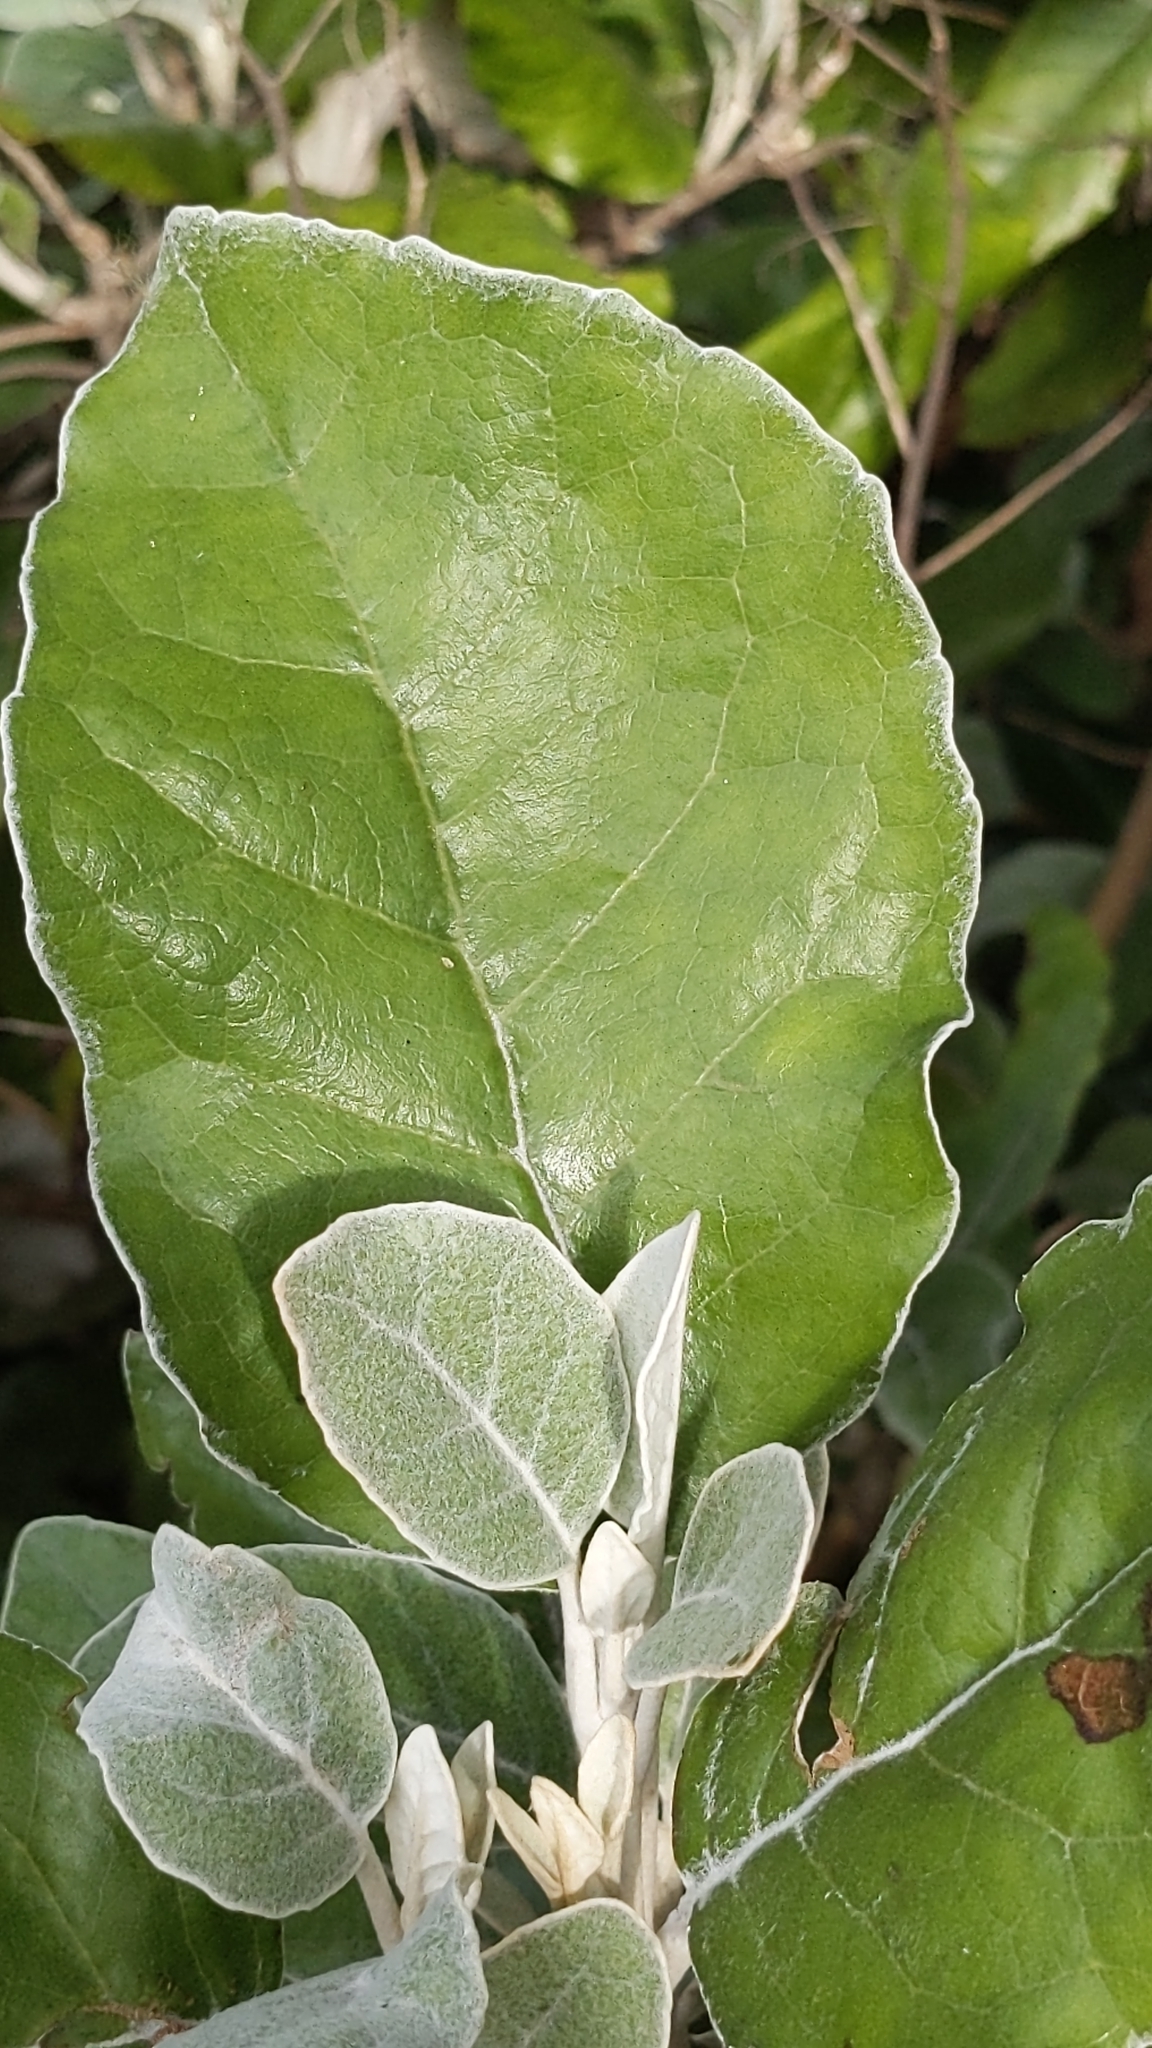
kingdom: Plantae
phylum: Tracheophyta
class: Magnoliopsida
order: Asterales
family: Asteraceae
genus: Brachyglottis
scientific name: Brachyglottis
